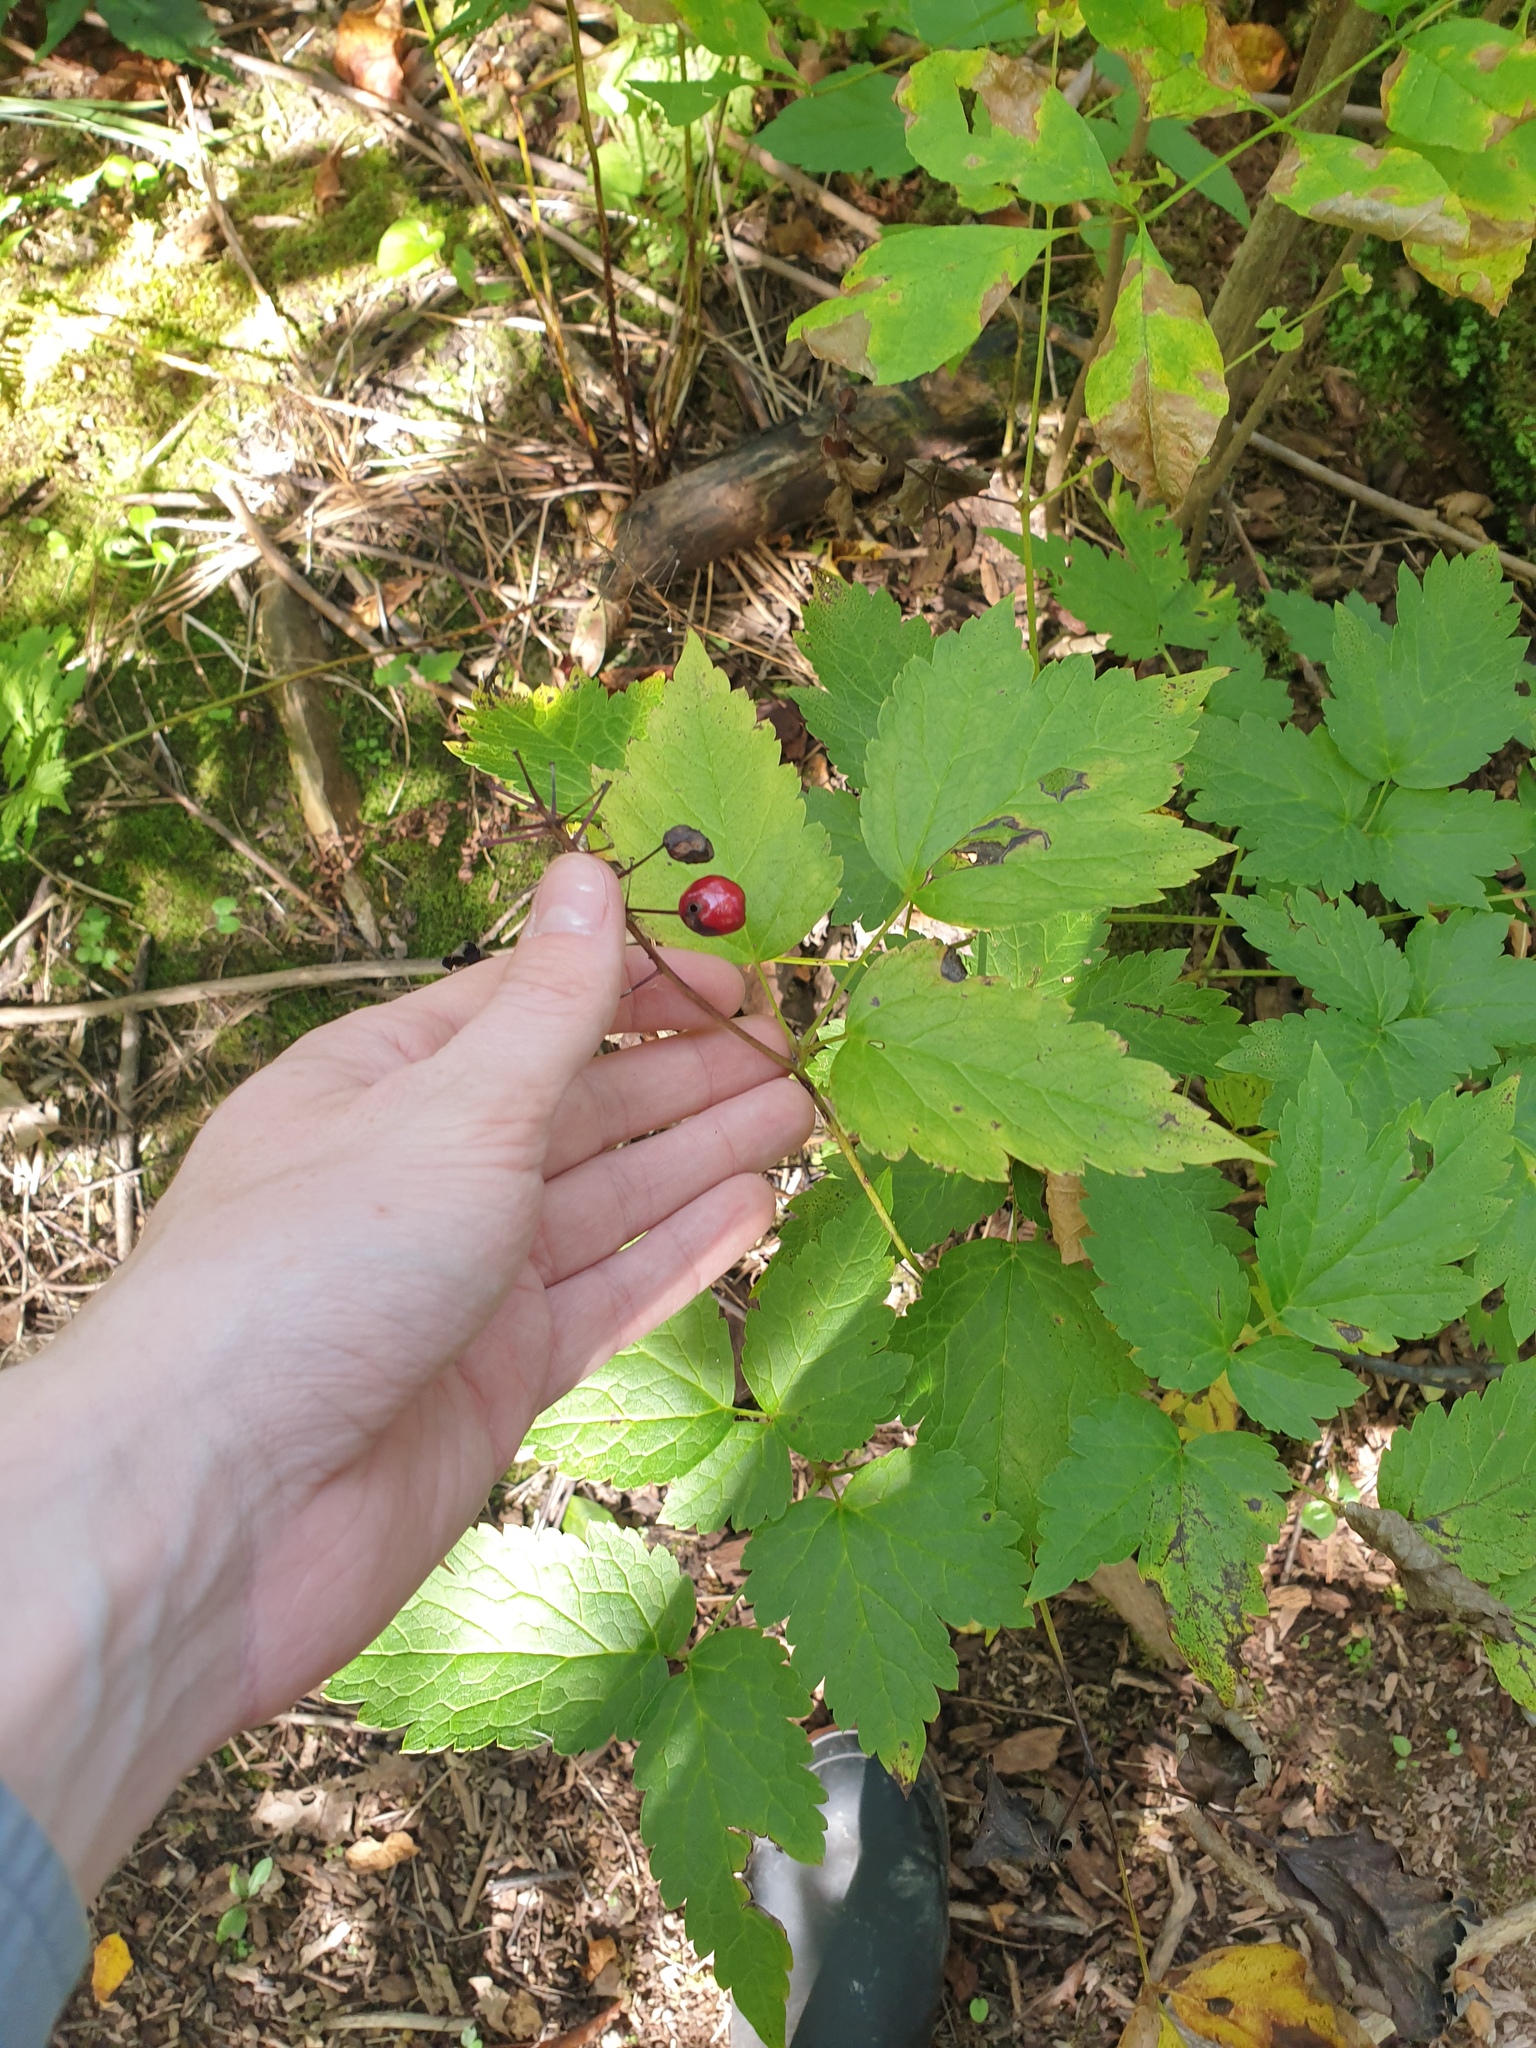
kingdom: Plantae
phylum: Tracheophyta
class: Magnoliopsida
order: Ranunculales
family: Ranunculaceae
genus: Actaea
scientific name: Actaea rubra
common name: Red baneberry
